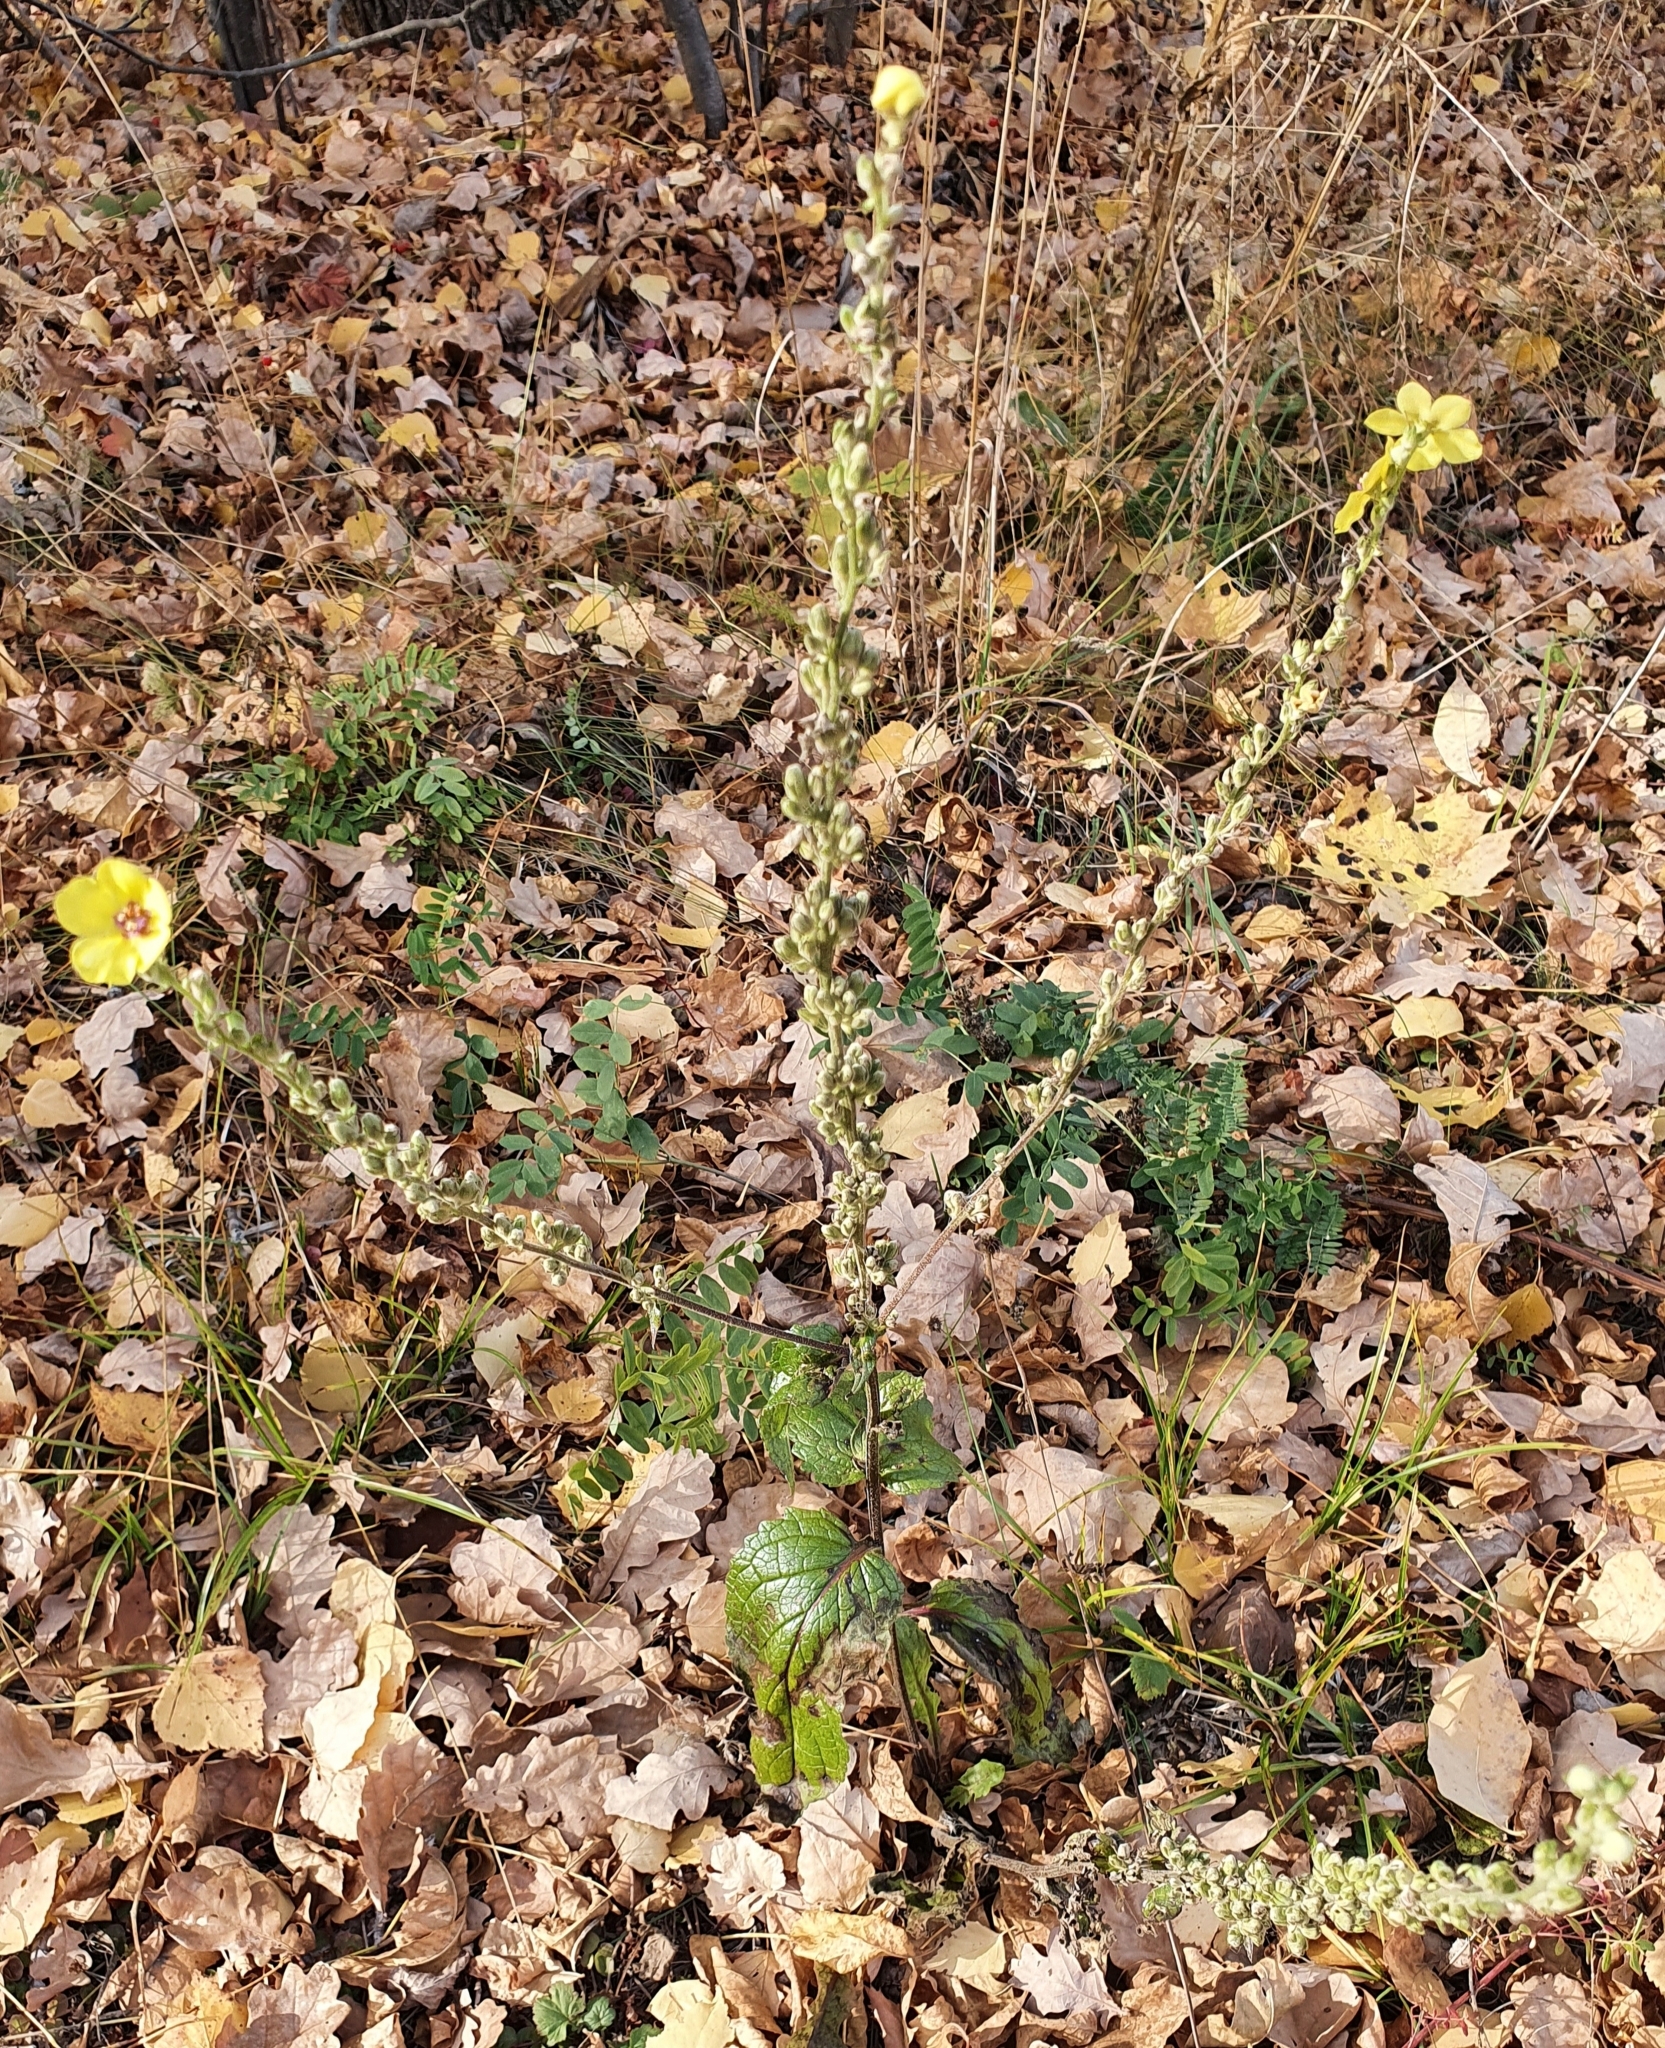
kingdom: Plantae
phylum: Tracheophyta
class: Magnoliopsida
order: Lamiales
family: Scrophulariaceae
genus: Verbascum
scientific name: Verbascum chaixii
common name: Nettle-leaved mullein
